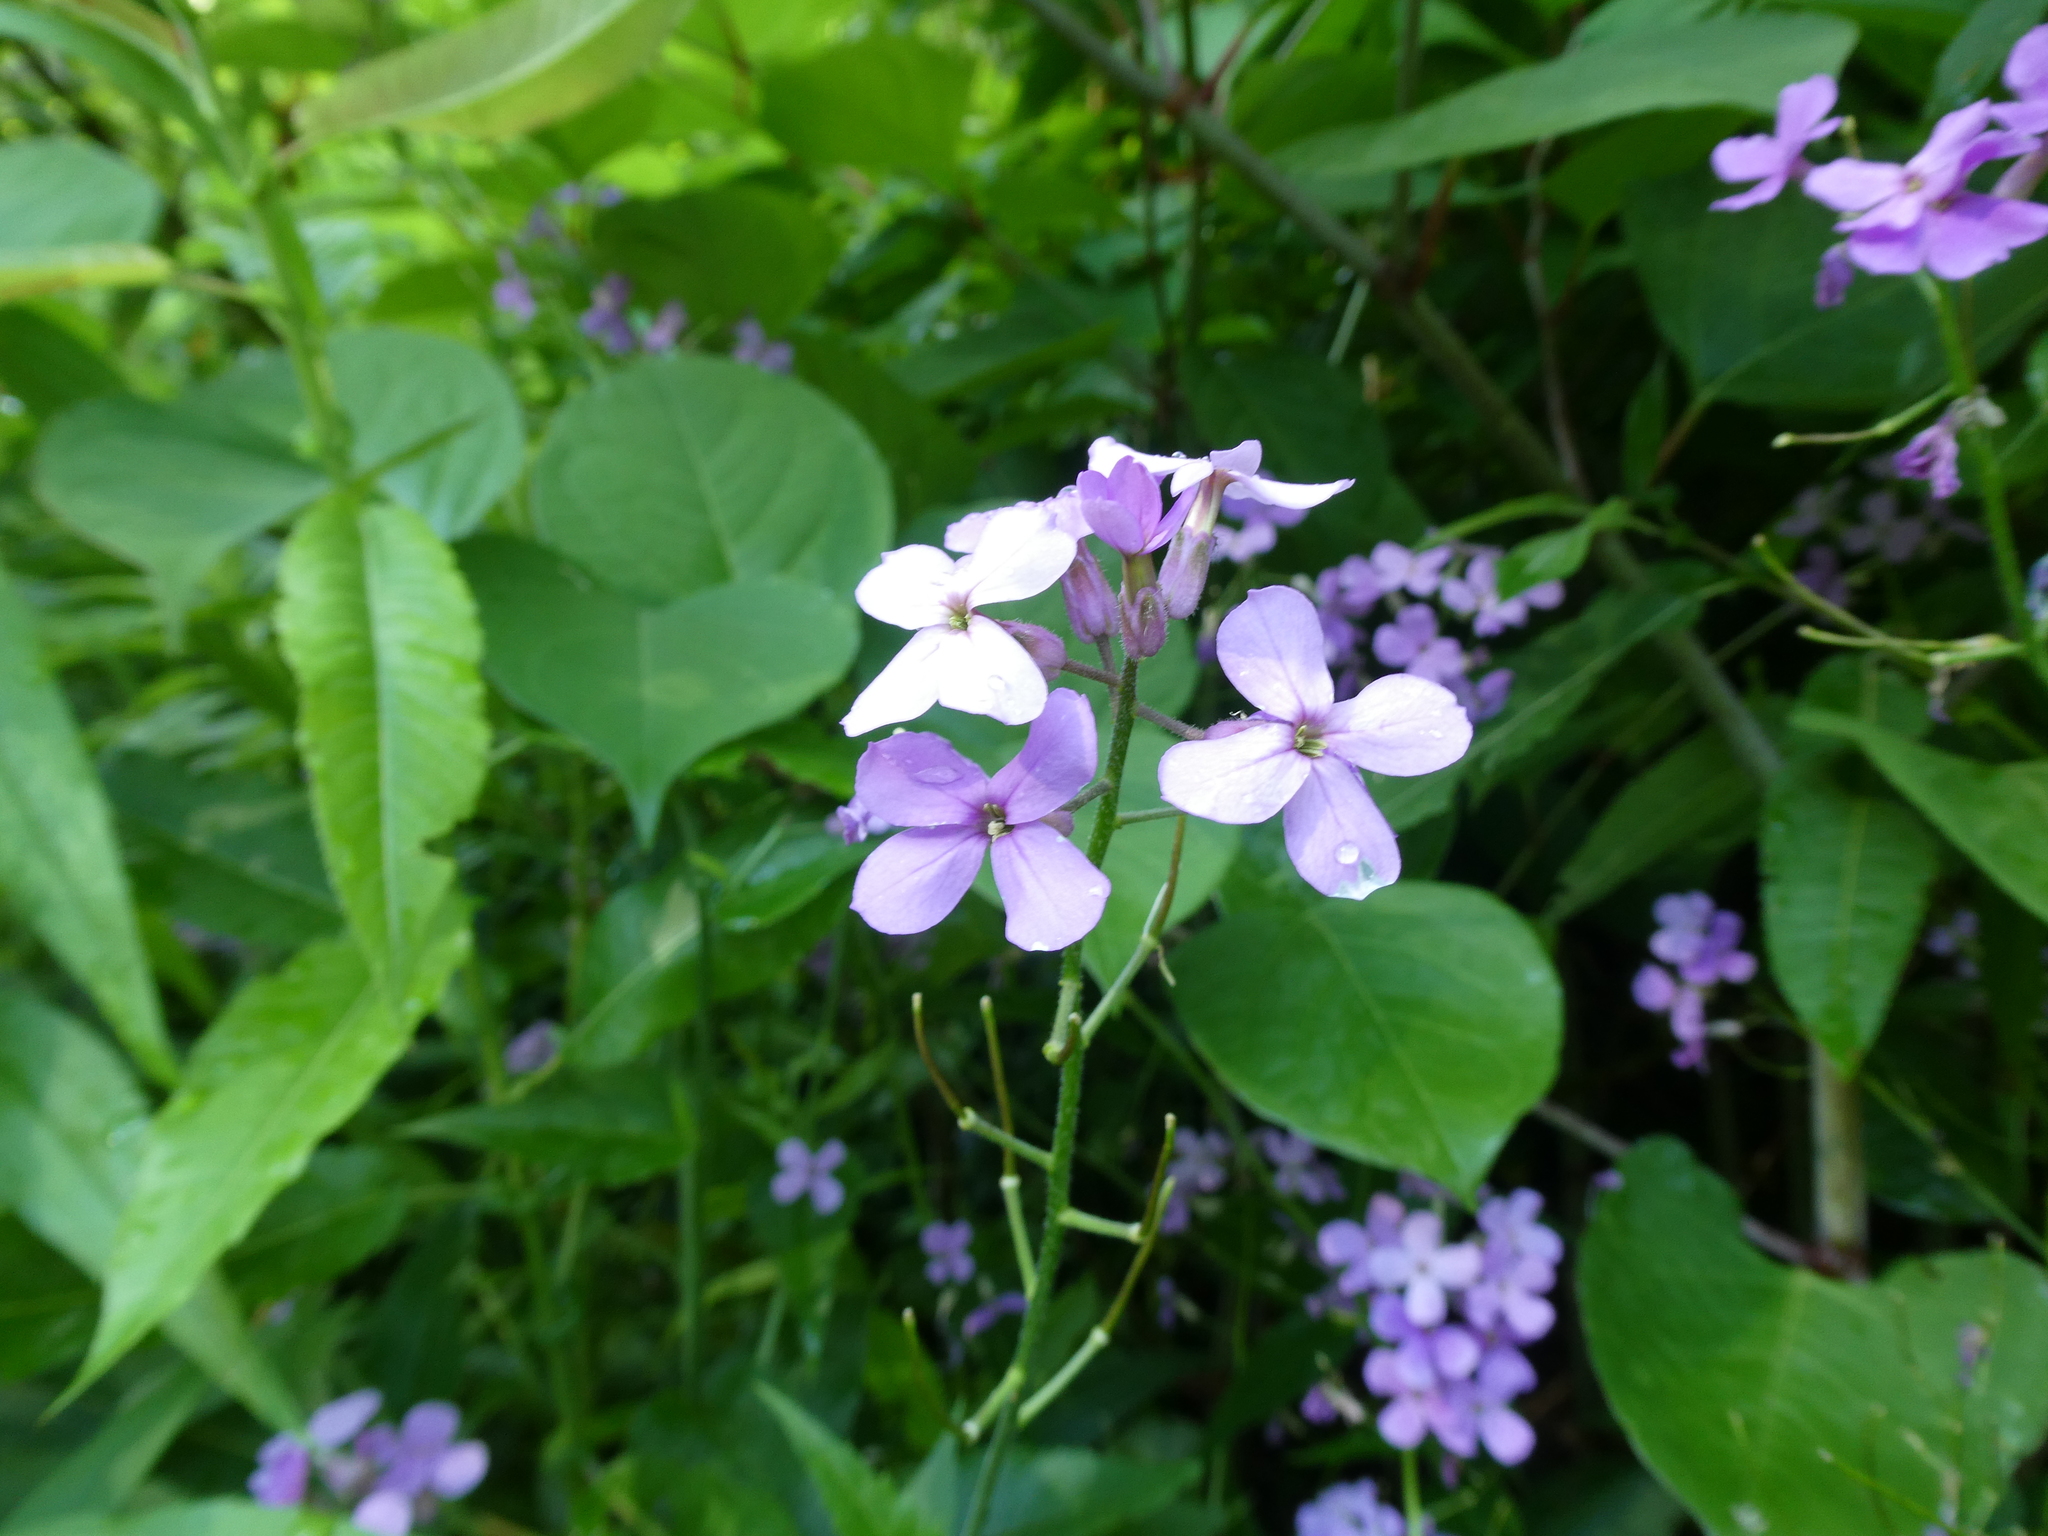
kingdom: Plantae
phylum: Tracheophyta
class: Magnoliopsida
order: Brassicales
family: Brassicaceae
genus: Hesperis
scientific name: Hesperis matronalis
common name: Dame's-violet
